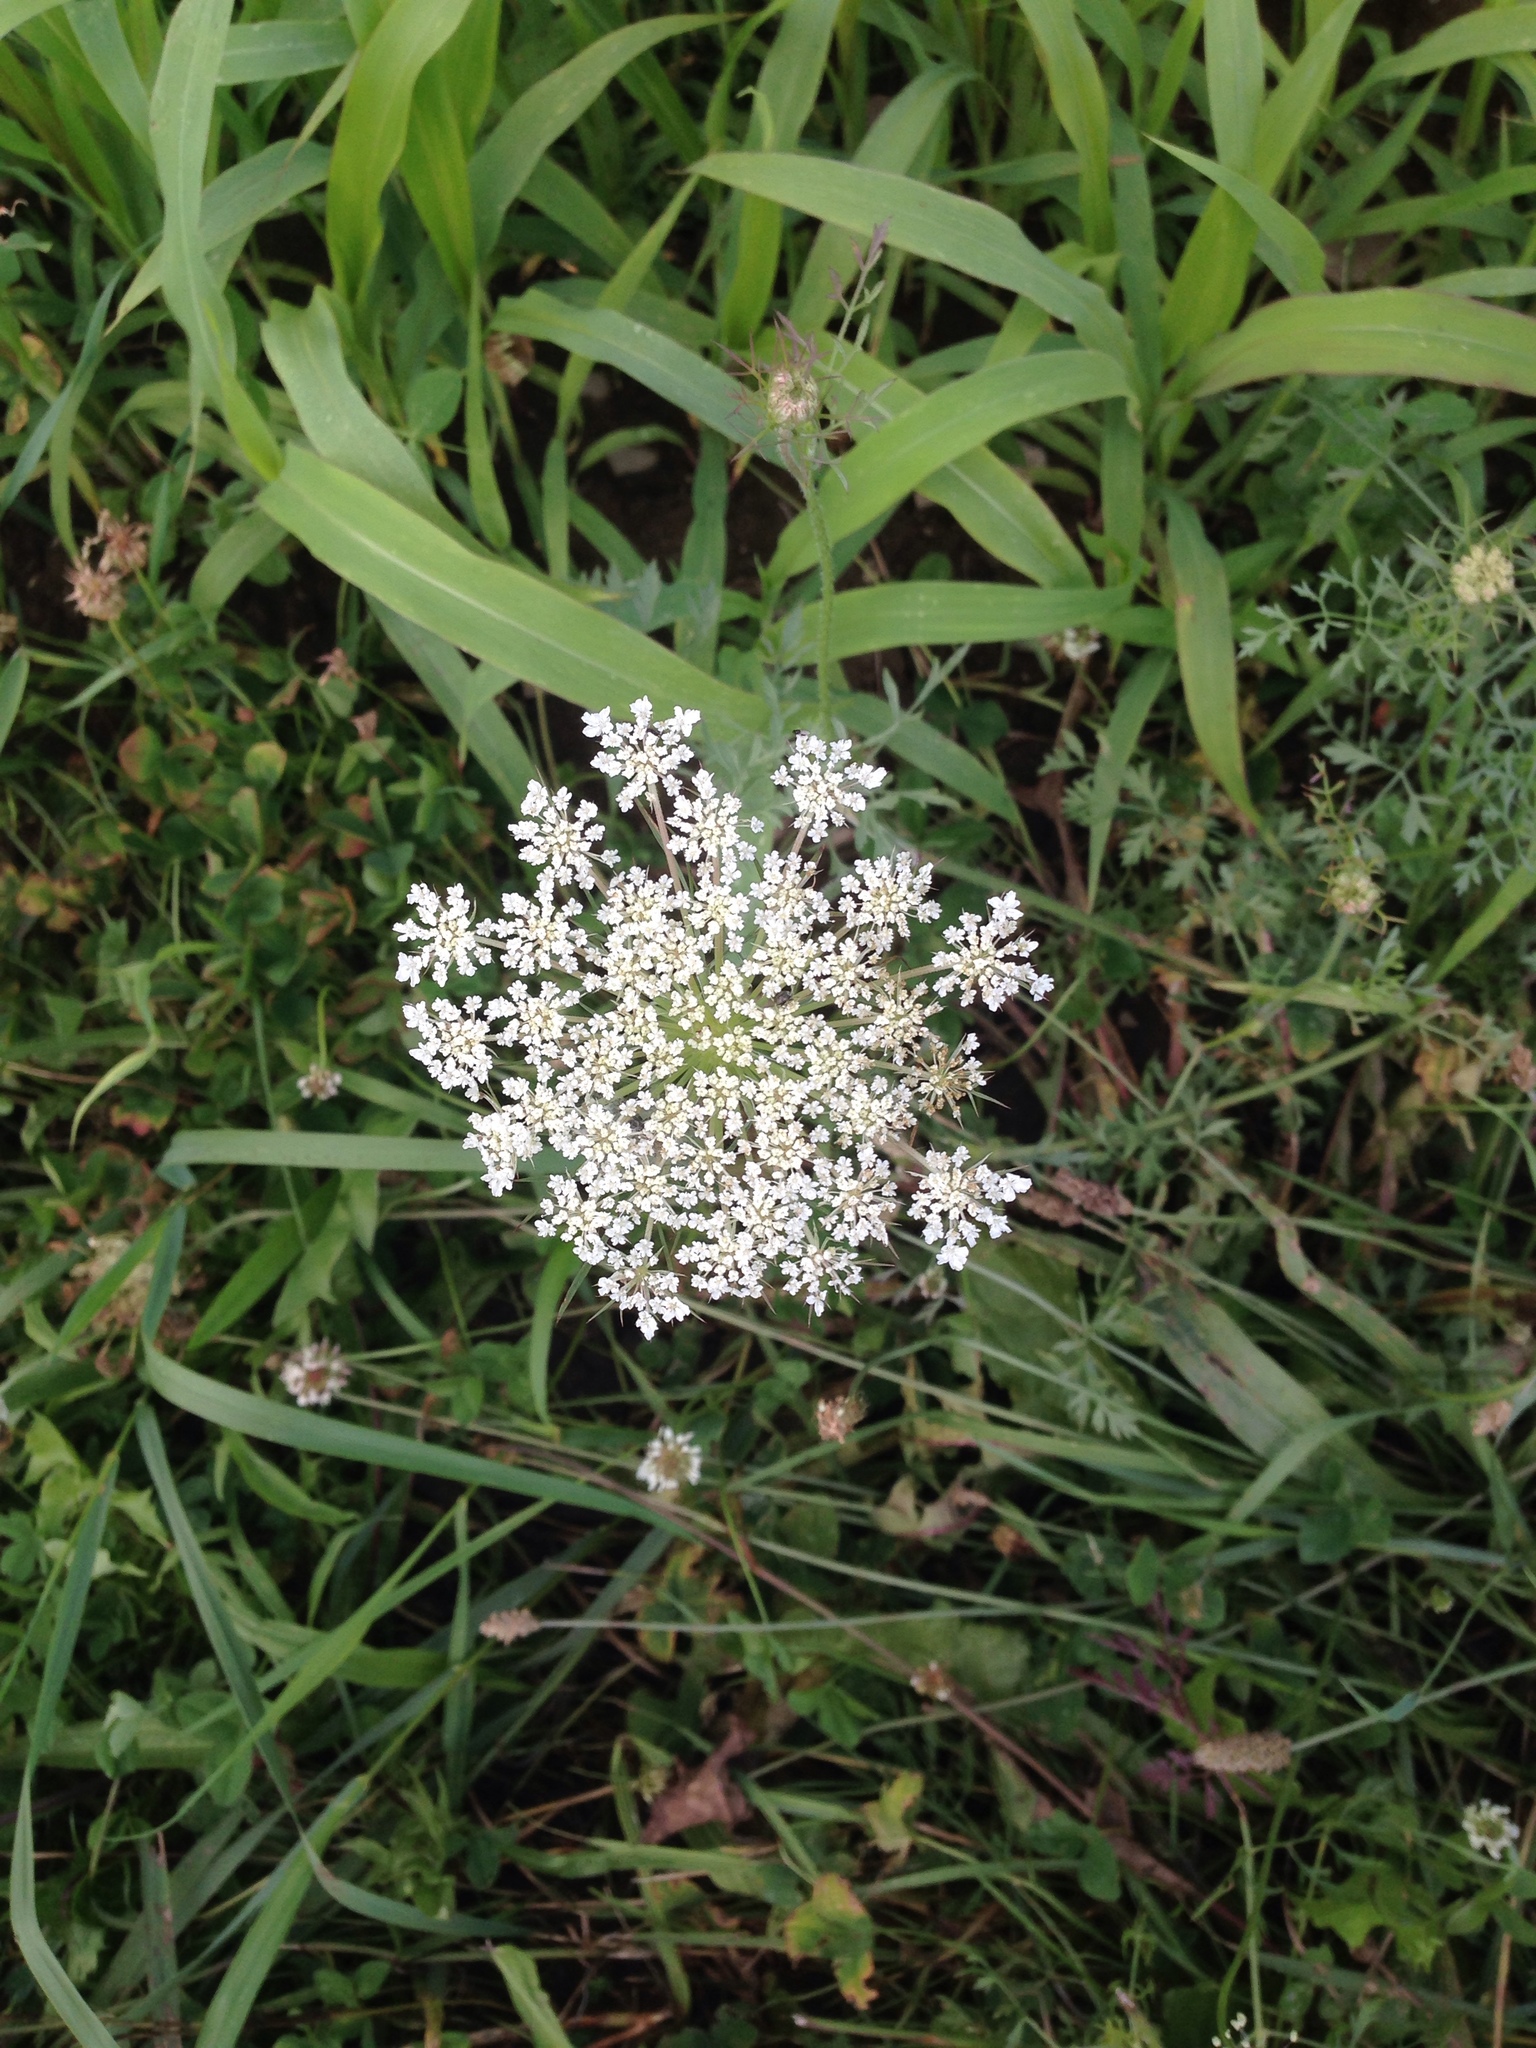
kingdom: Plantae
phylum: Tracheophyta
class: Magnoliopsida
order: Apiales
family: Apiaceae
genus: Daucus
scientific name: Daucus carota
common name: Wild carrot
